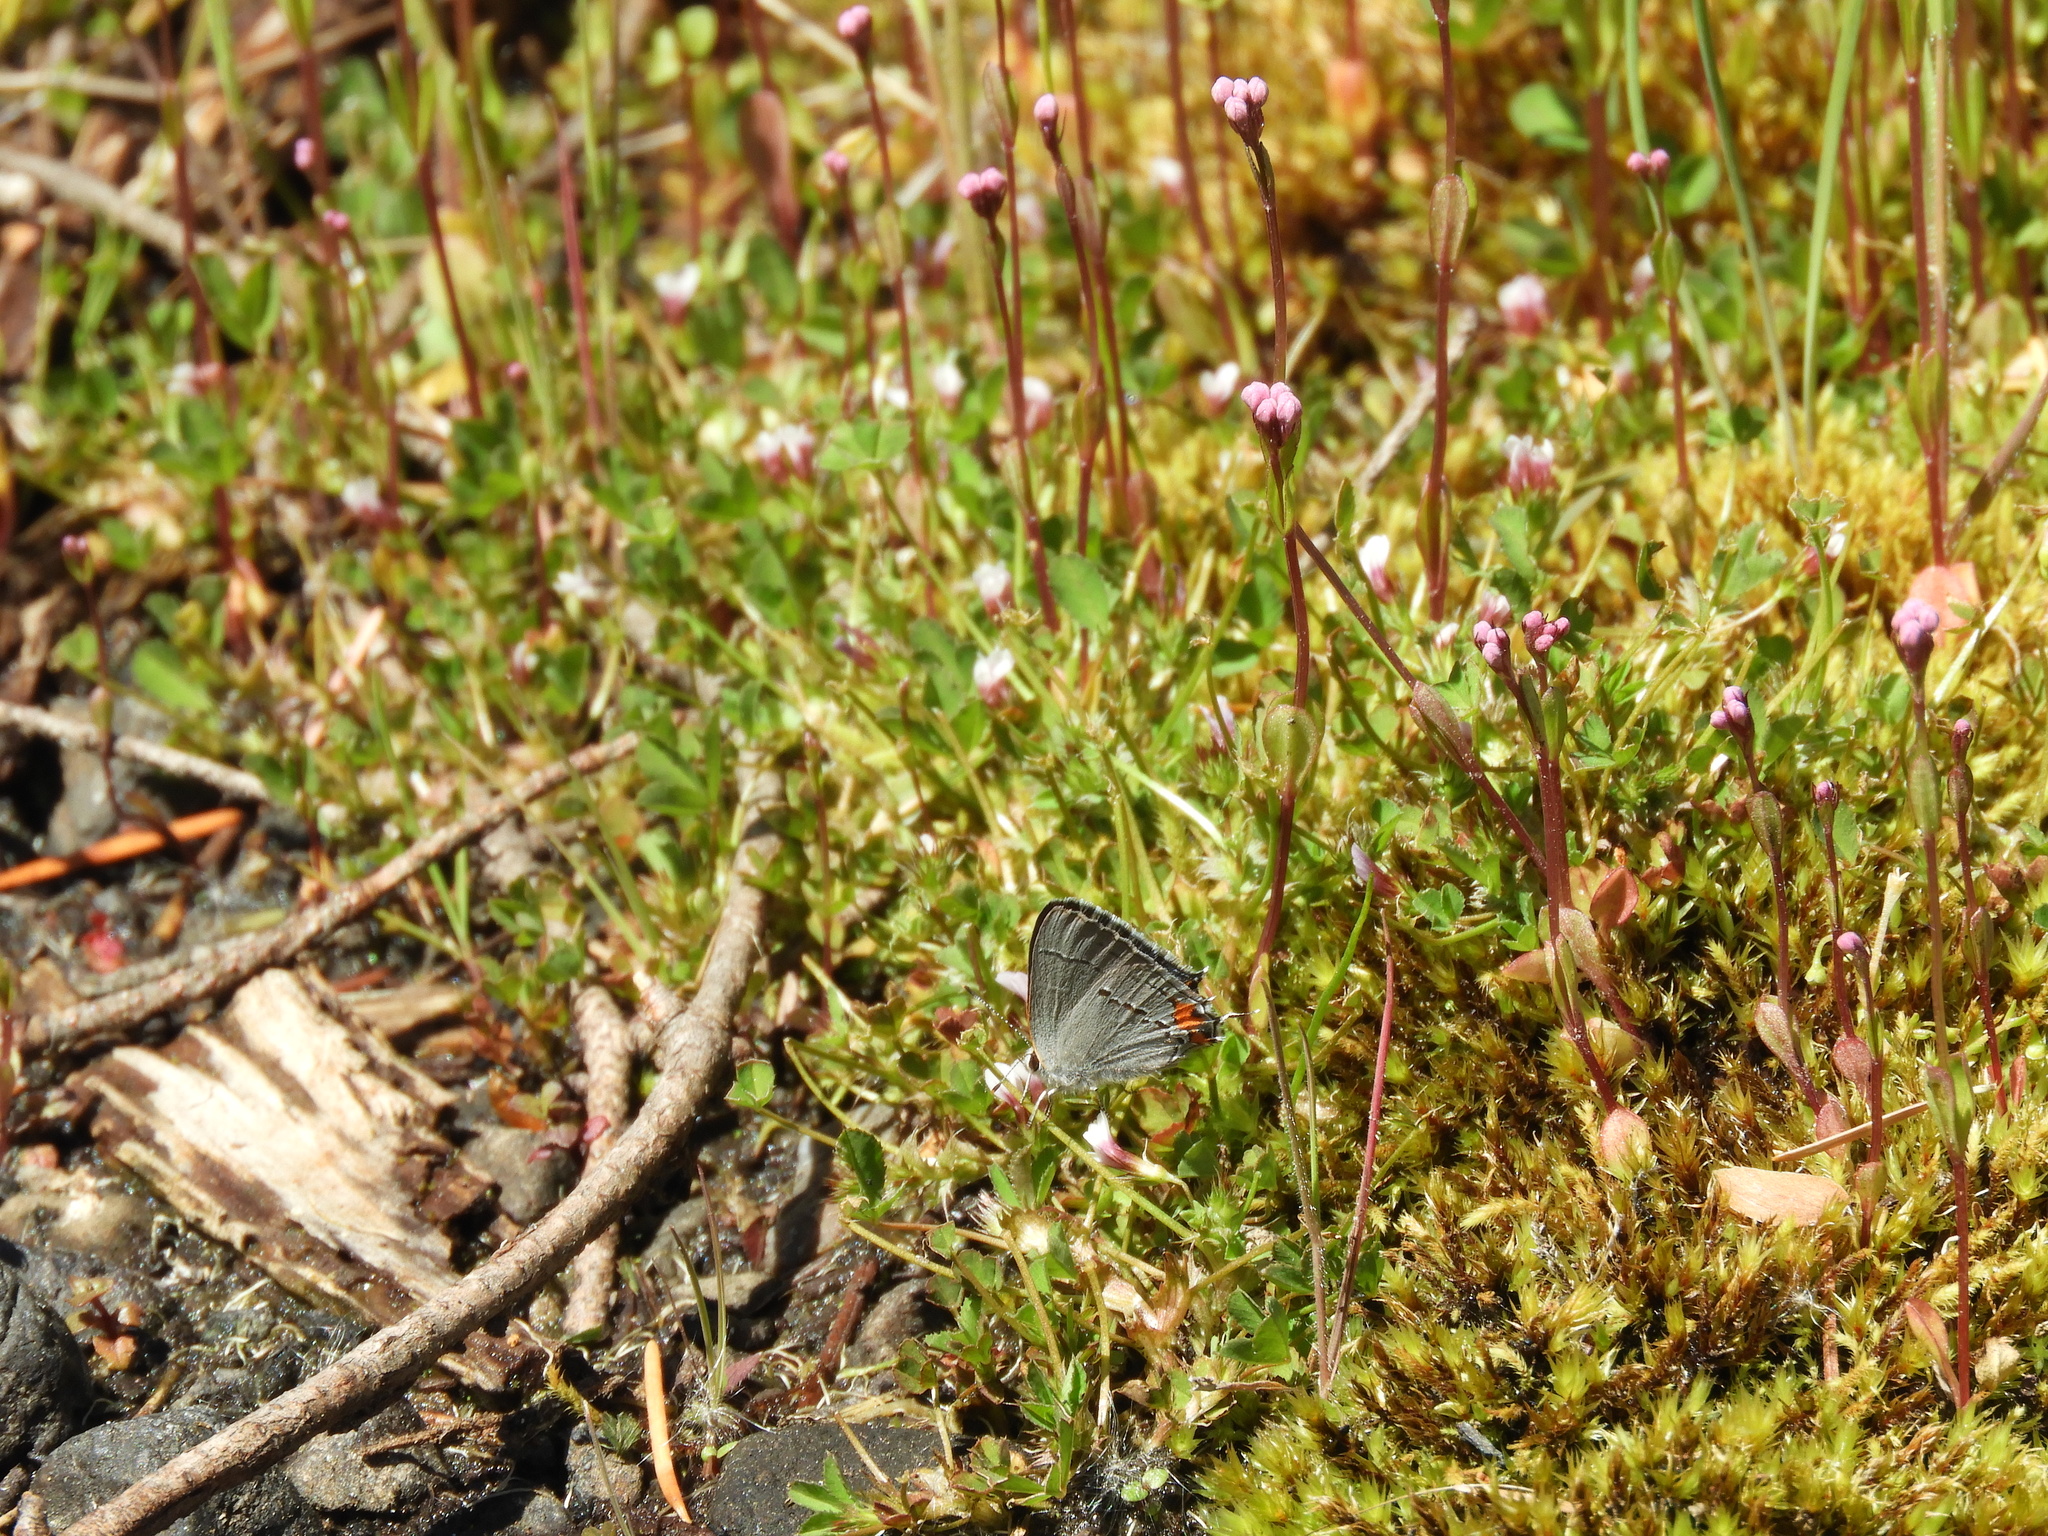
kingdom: Animalia
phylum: Arthropoda
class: Insecta
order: Lepidoptera
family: Lycaenidae
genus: Strymon
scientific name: Strymon melinus
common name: Gray hairstreak
